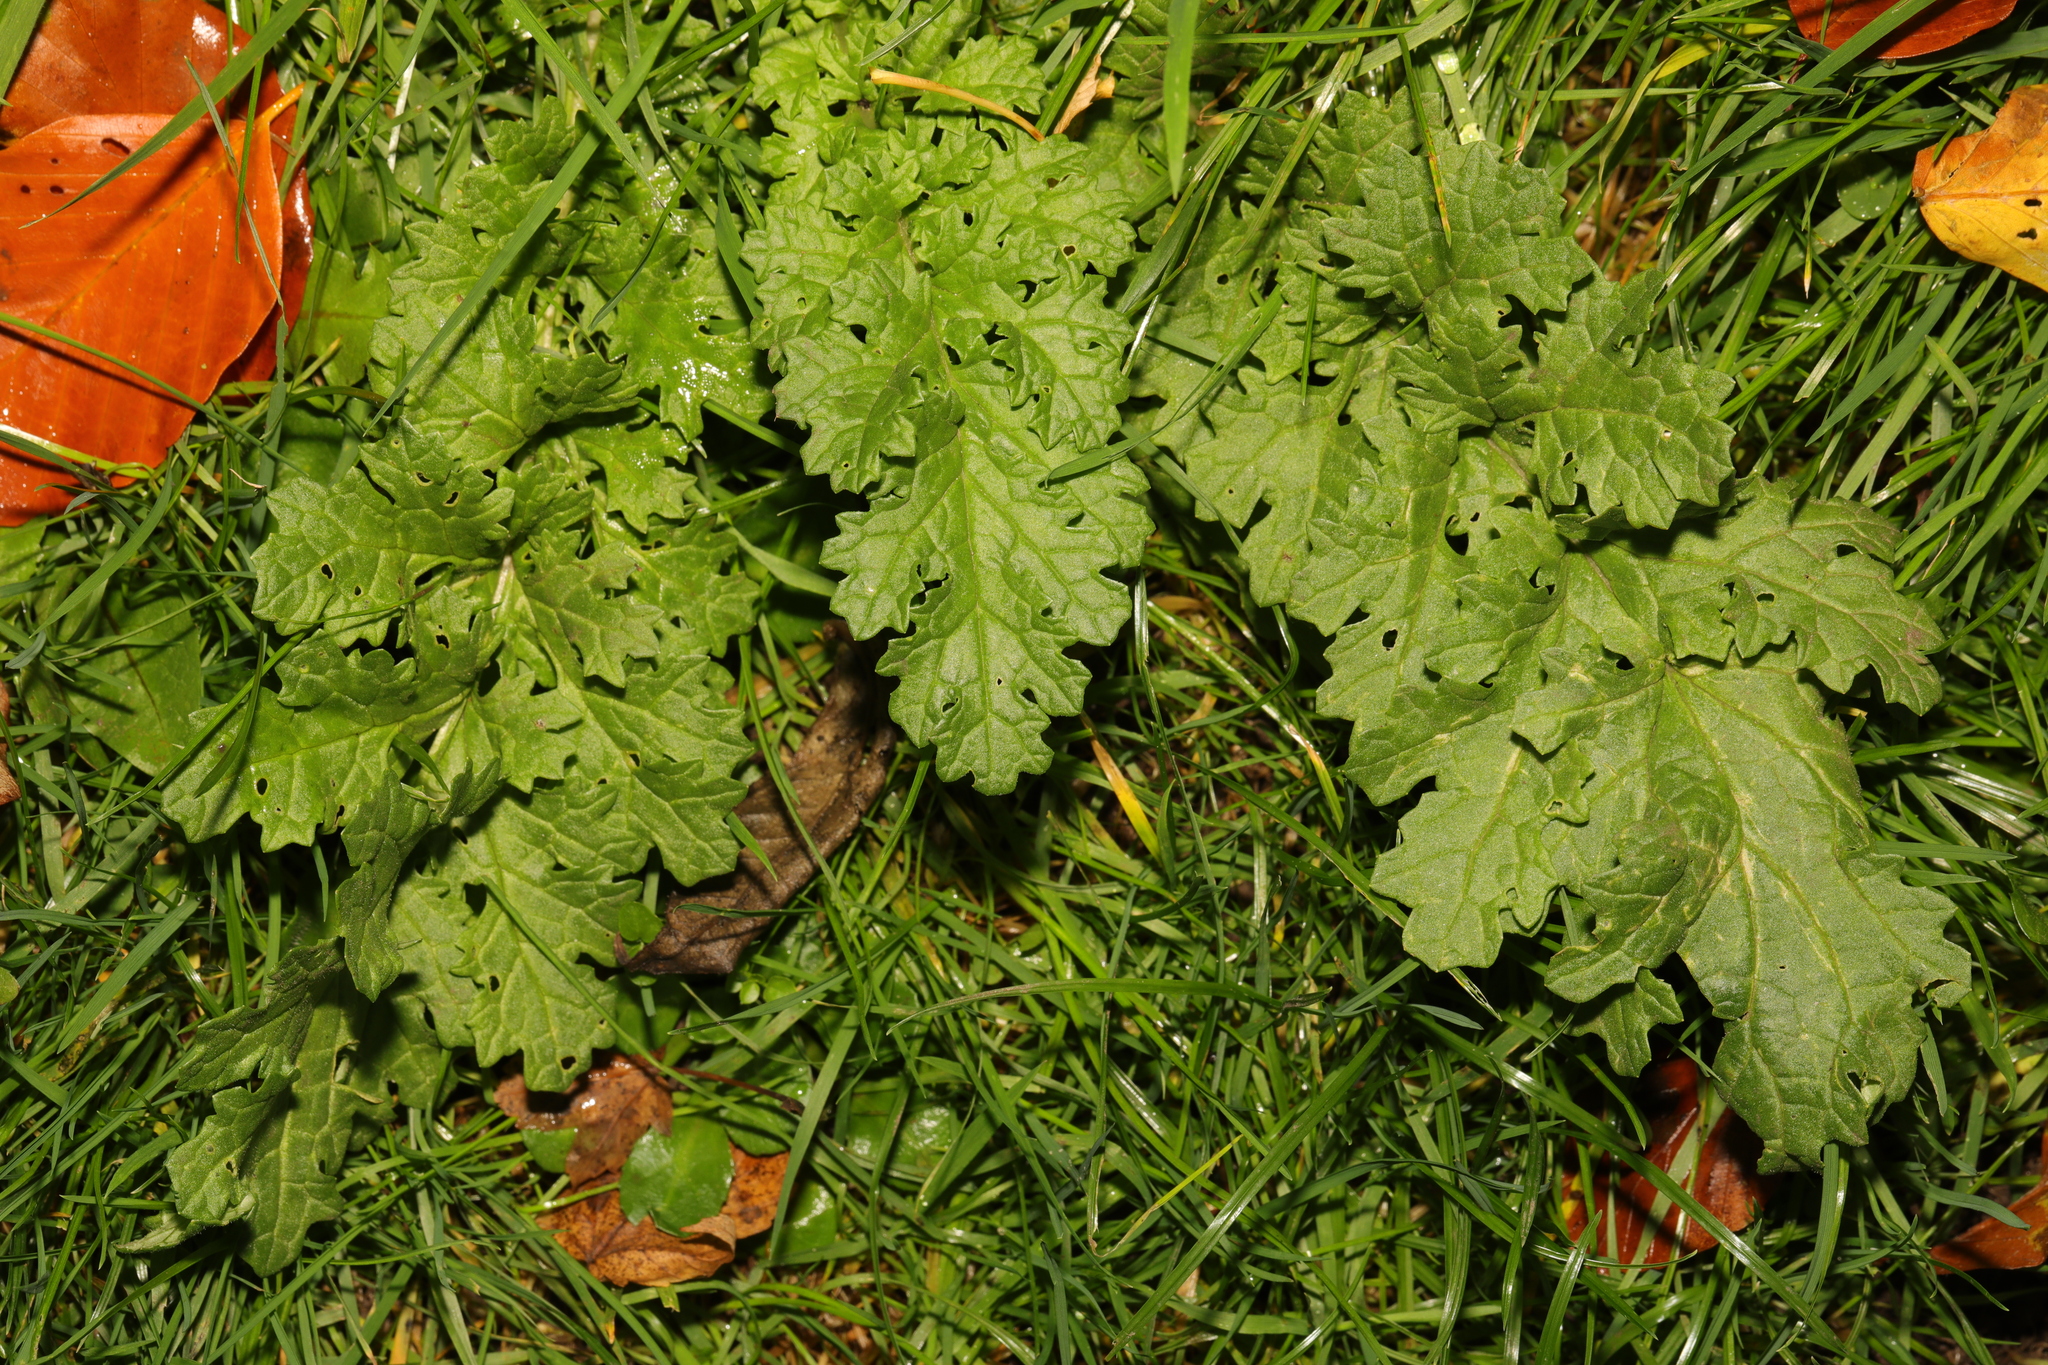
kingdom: Plantae
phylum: Tracheophyta
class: Magnoliopsida
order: Asterales
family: Asteraceae
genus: Jacobaea
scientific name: Jacobaea vulgaris
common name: Stinking willie
